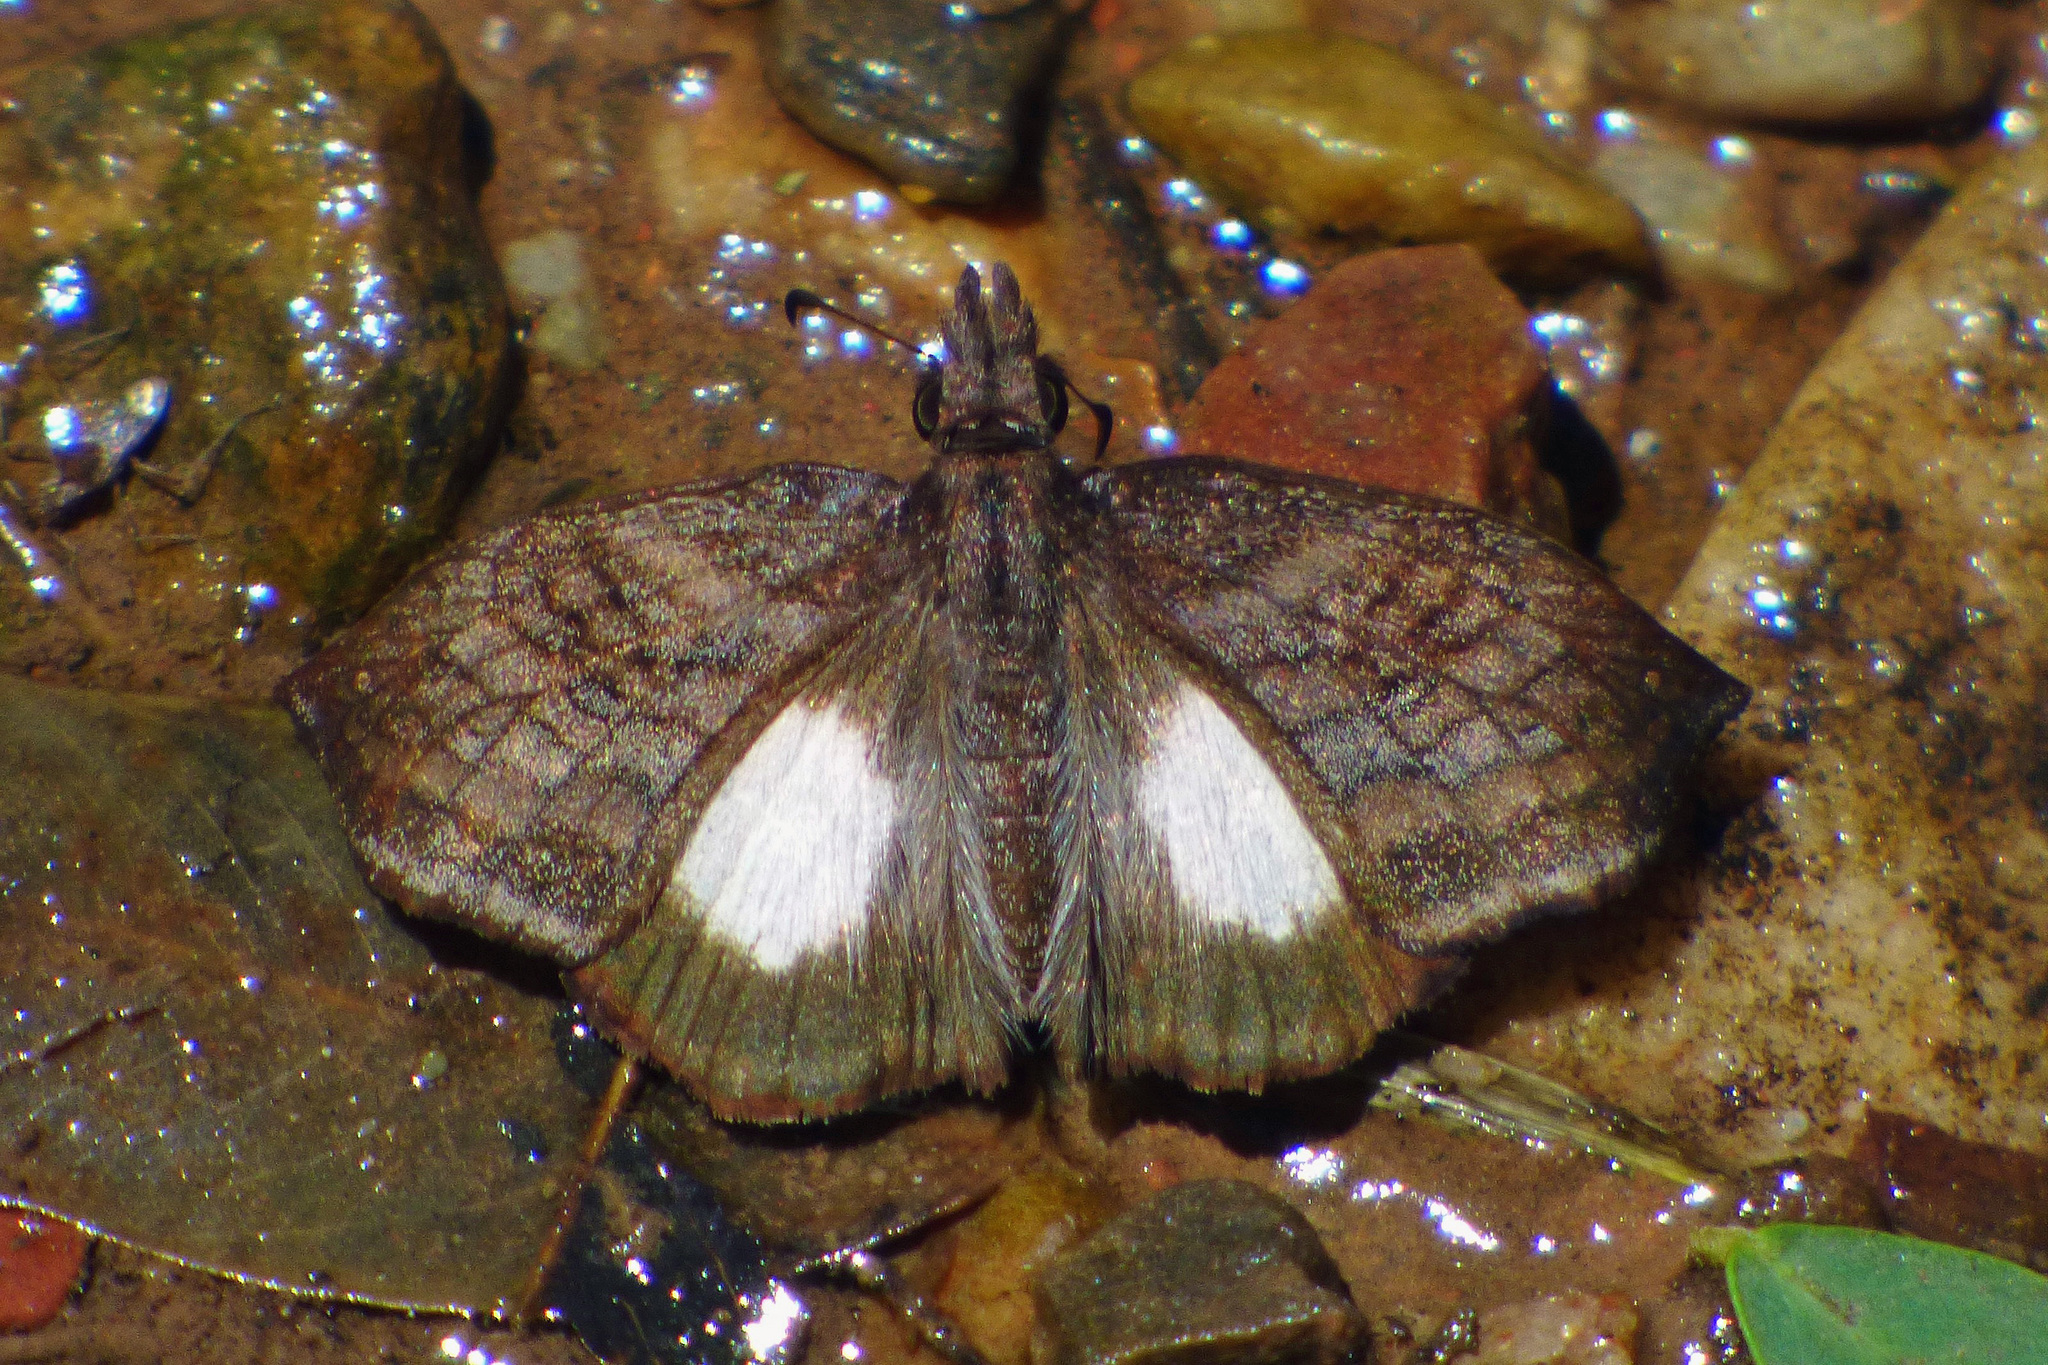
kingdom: Animalia
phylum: Arthropoda
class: Insecta
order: Lepidoptera
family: Hesperiidae
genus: Theagenes
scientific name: Theagenes albiplaga
